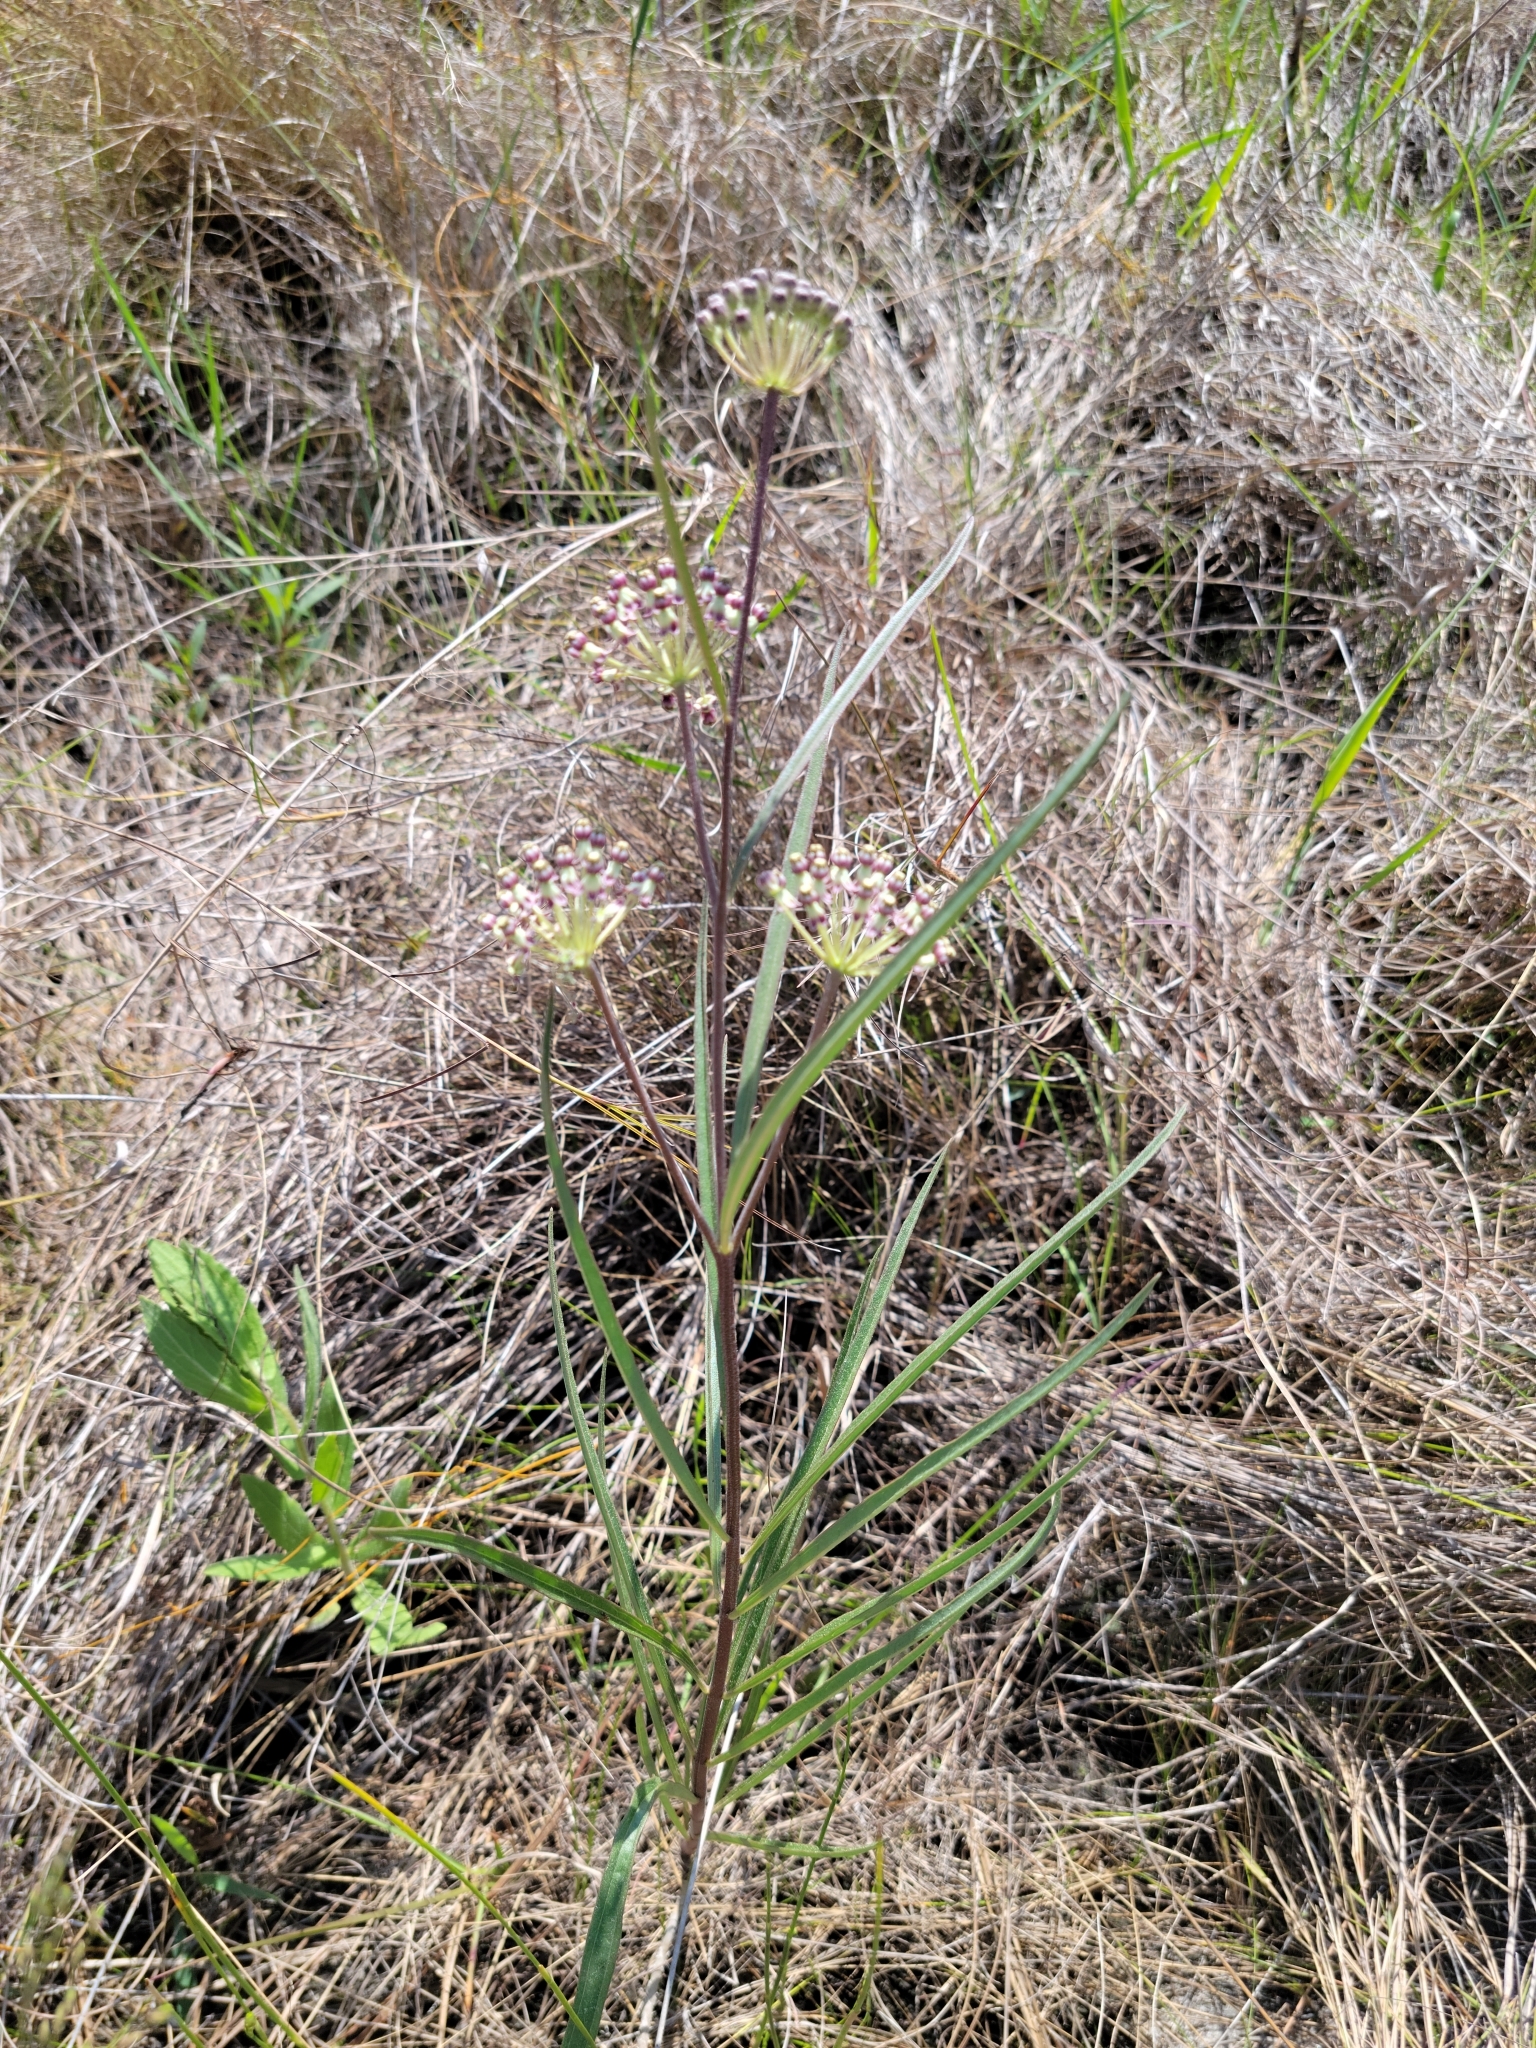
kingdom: Plantae
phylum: Tracheophyta
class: Magnoliopsida
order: Gentianales
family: Apocynaceae
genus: Asclepias
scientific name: Asclepias longifolia
